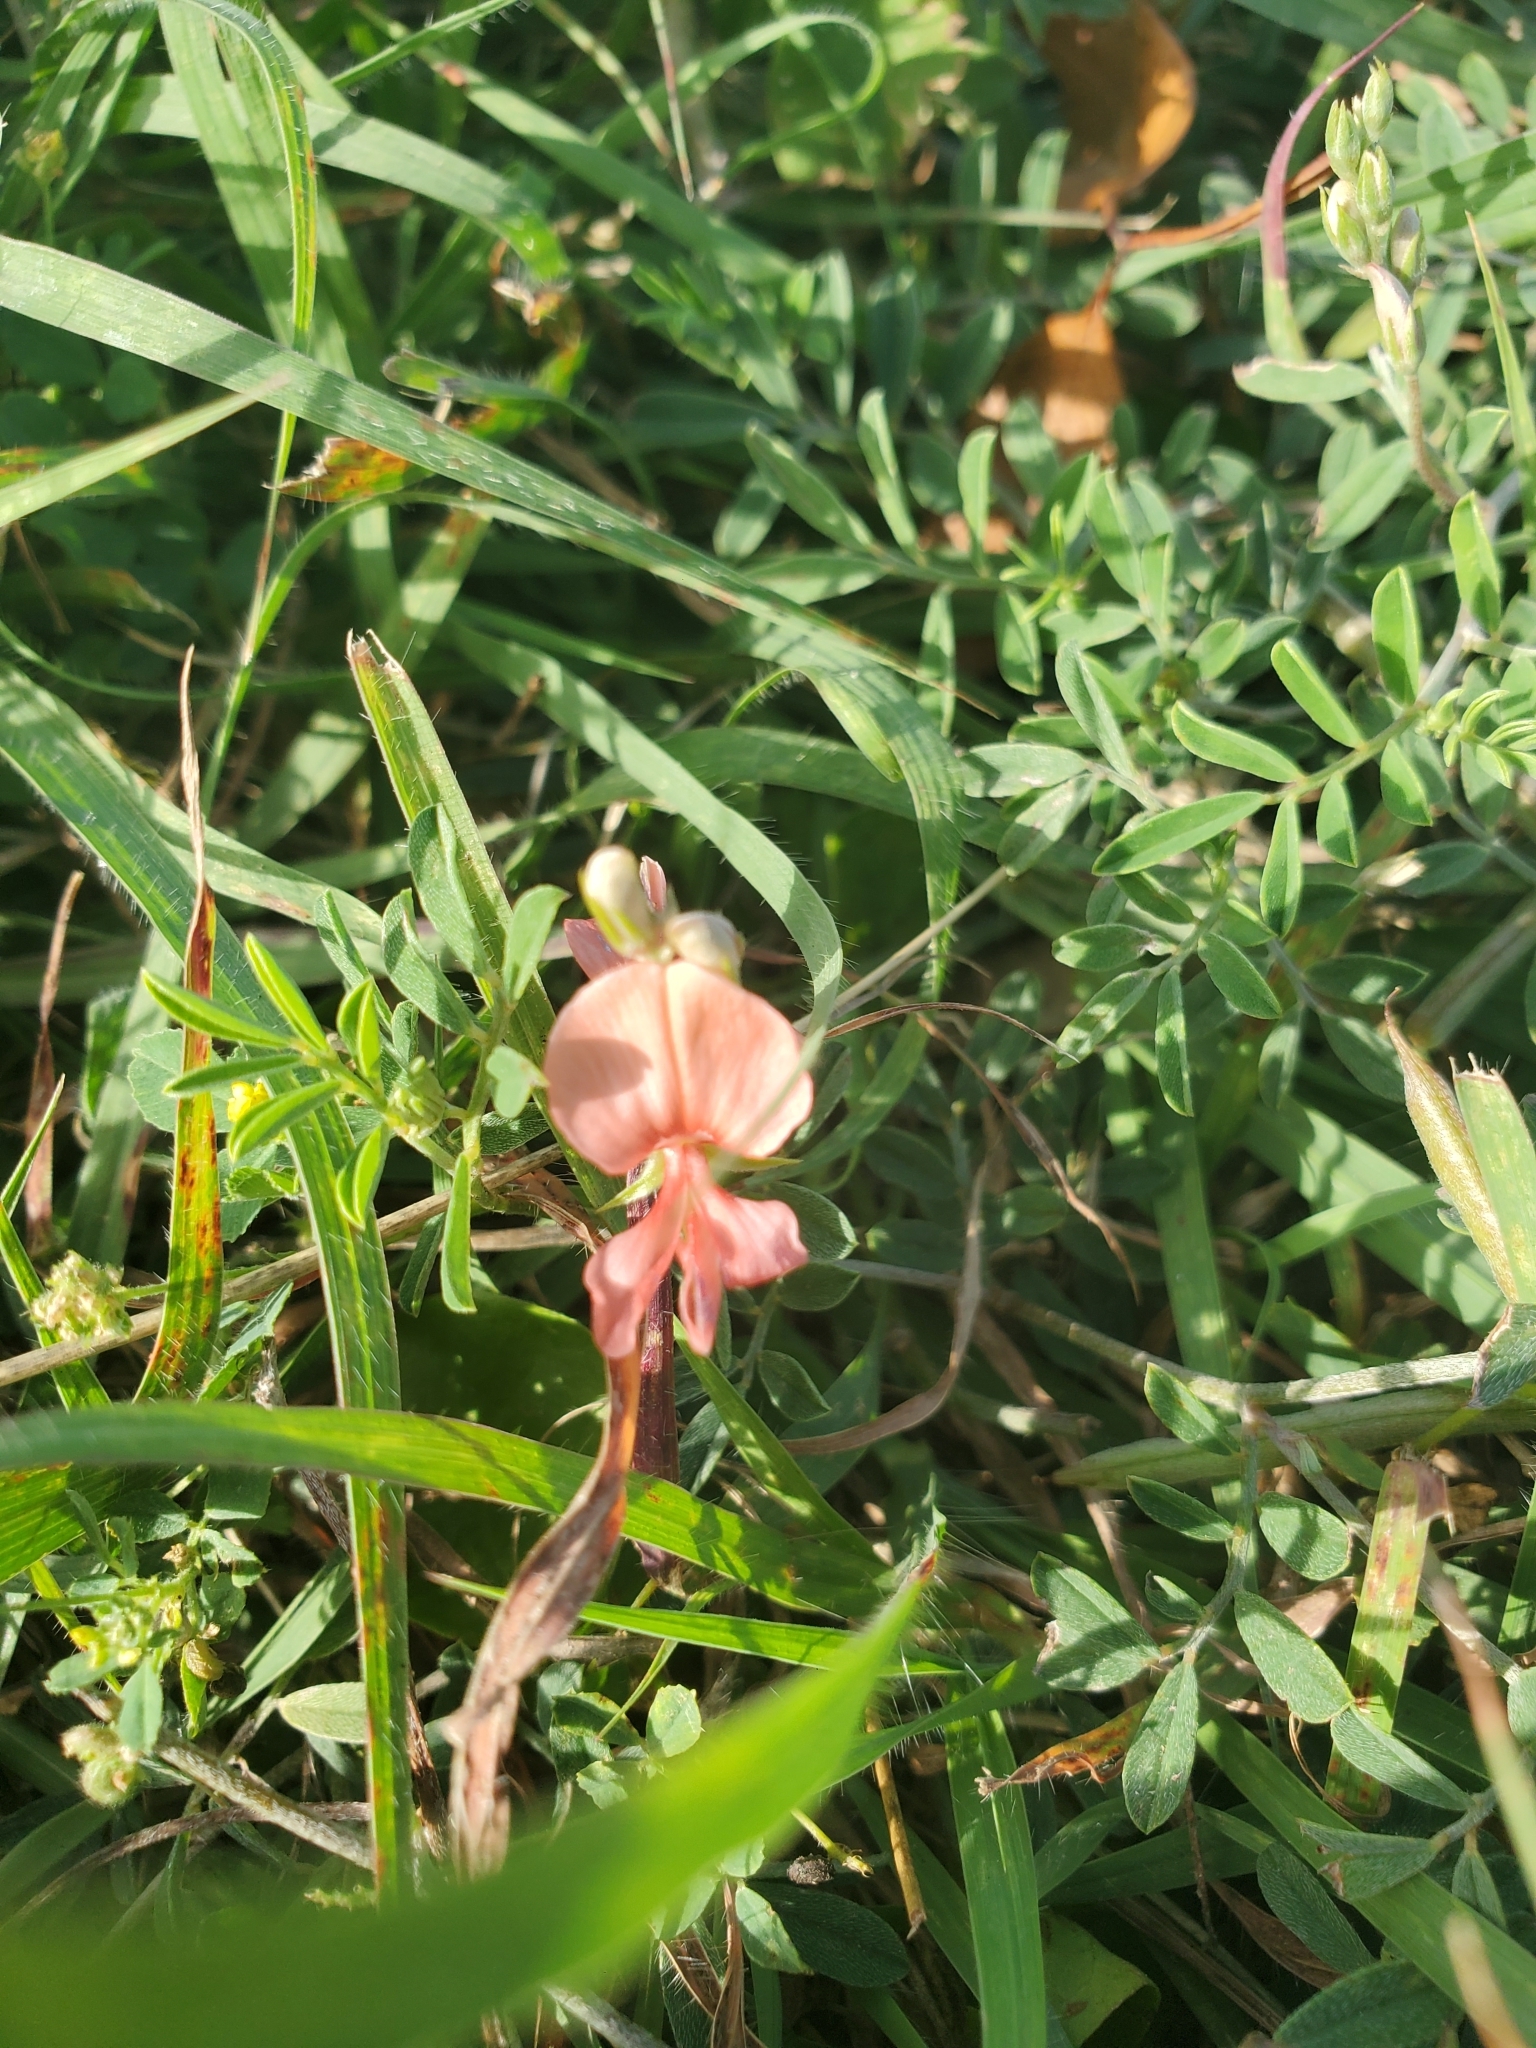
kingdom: Plantae
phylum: Tracheophyta
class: Magnoliopsida
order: Fabales
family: Fabaceae
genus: Indigofera
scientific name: Indigofera miniata
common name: Coast indigo
